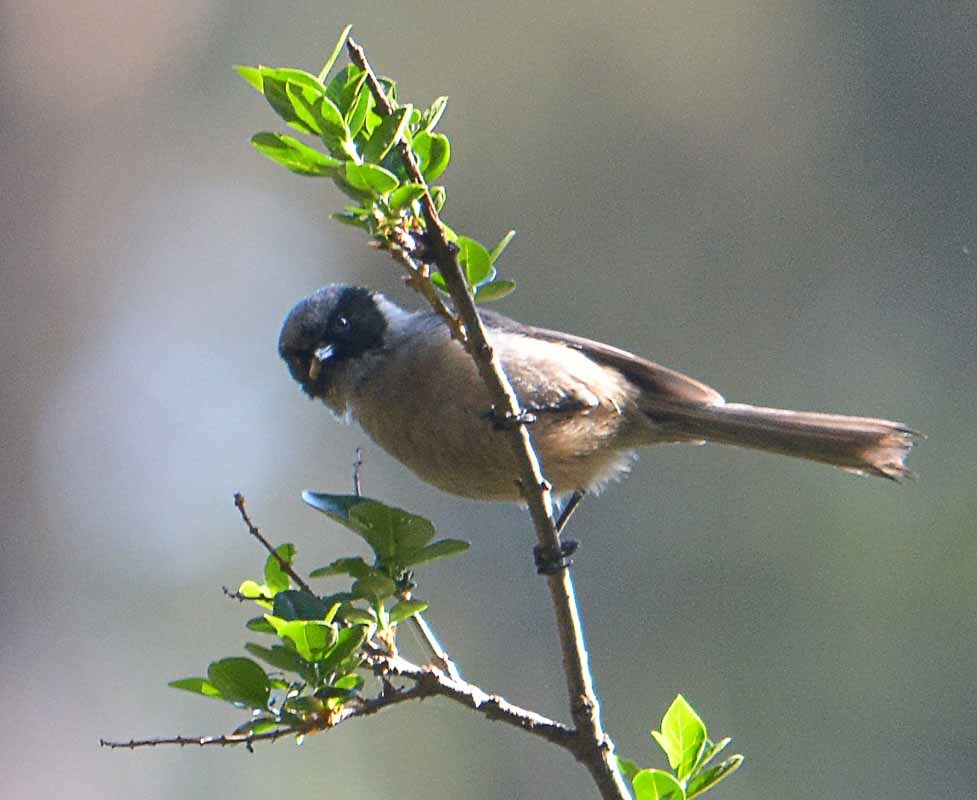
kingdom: Animalia
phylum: Chordata
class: Aves
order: Passeriformes
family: Aegithalidae
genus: Psaltriparus
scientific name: Psaltriparus minimus
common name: American bushtit
